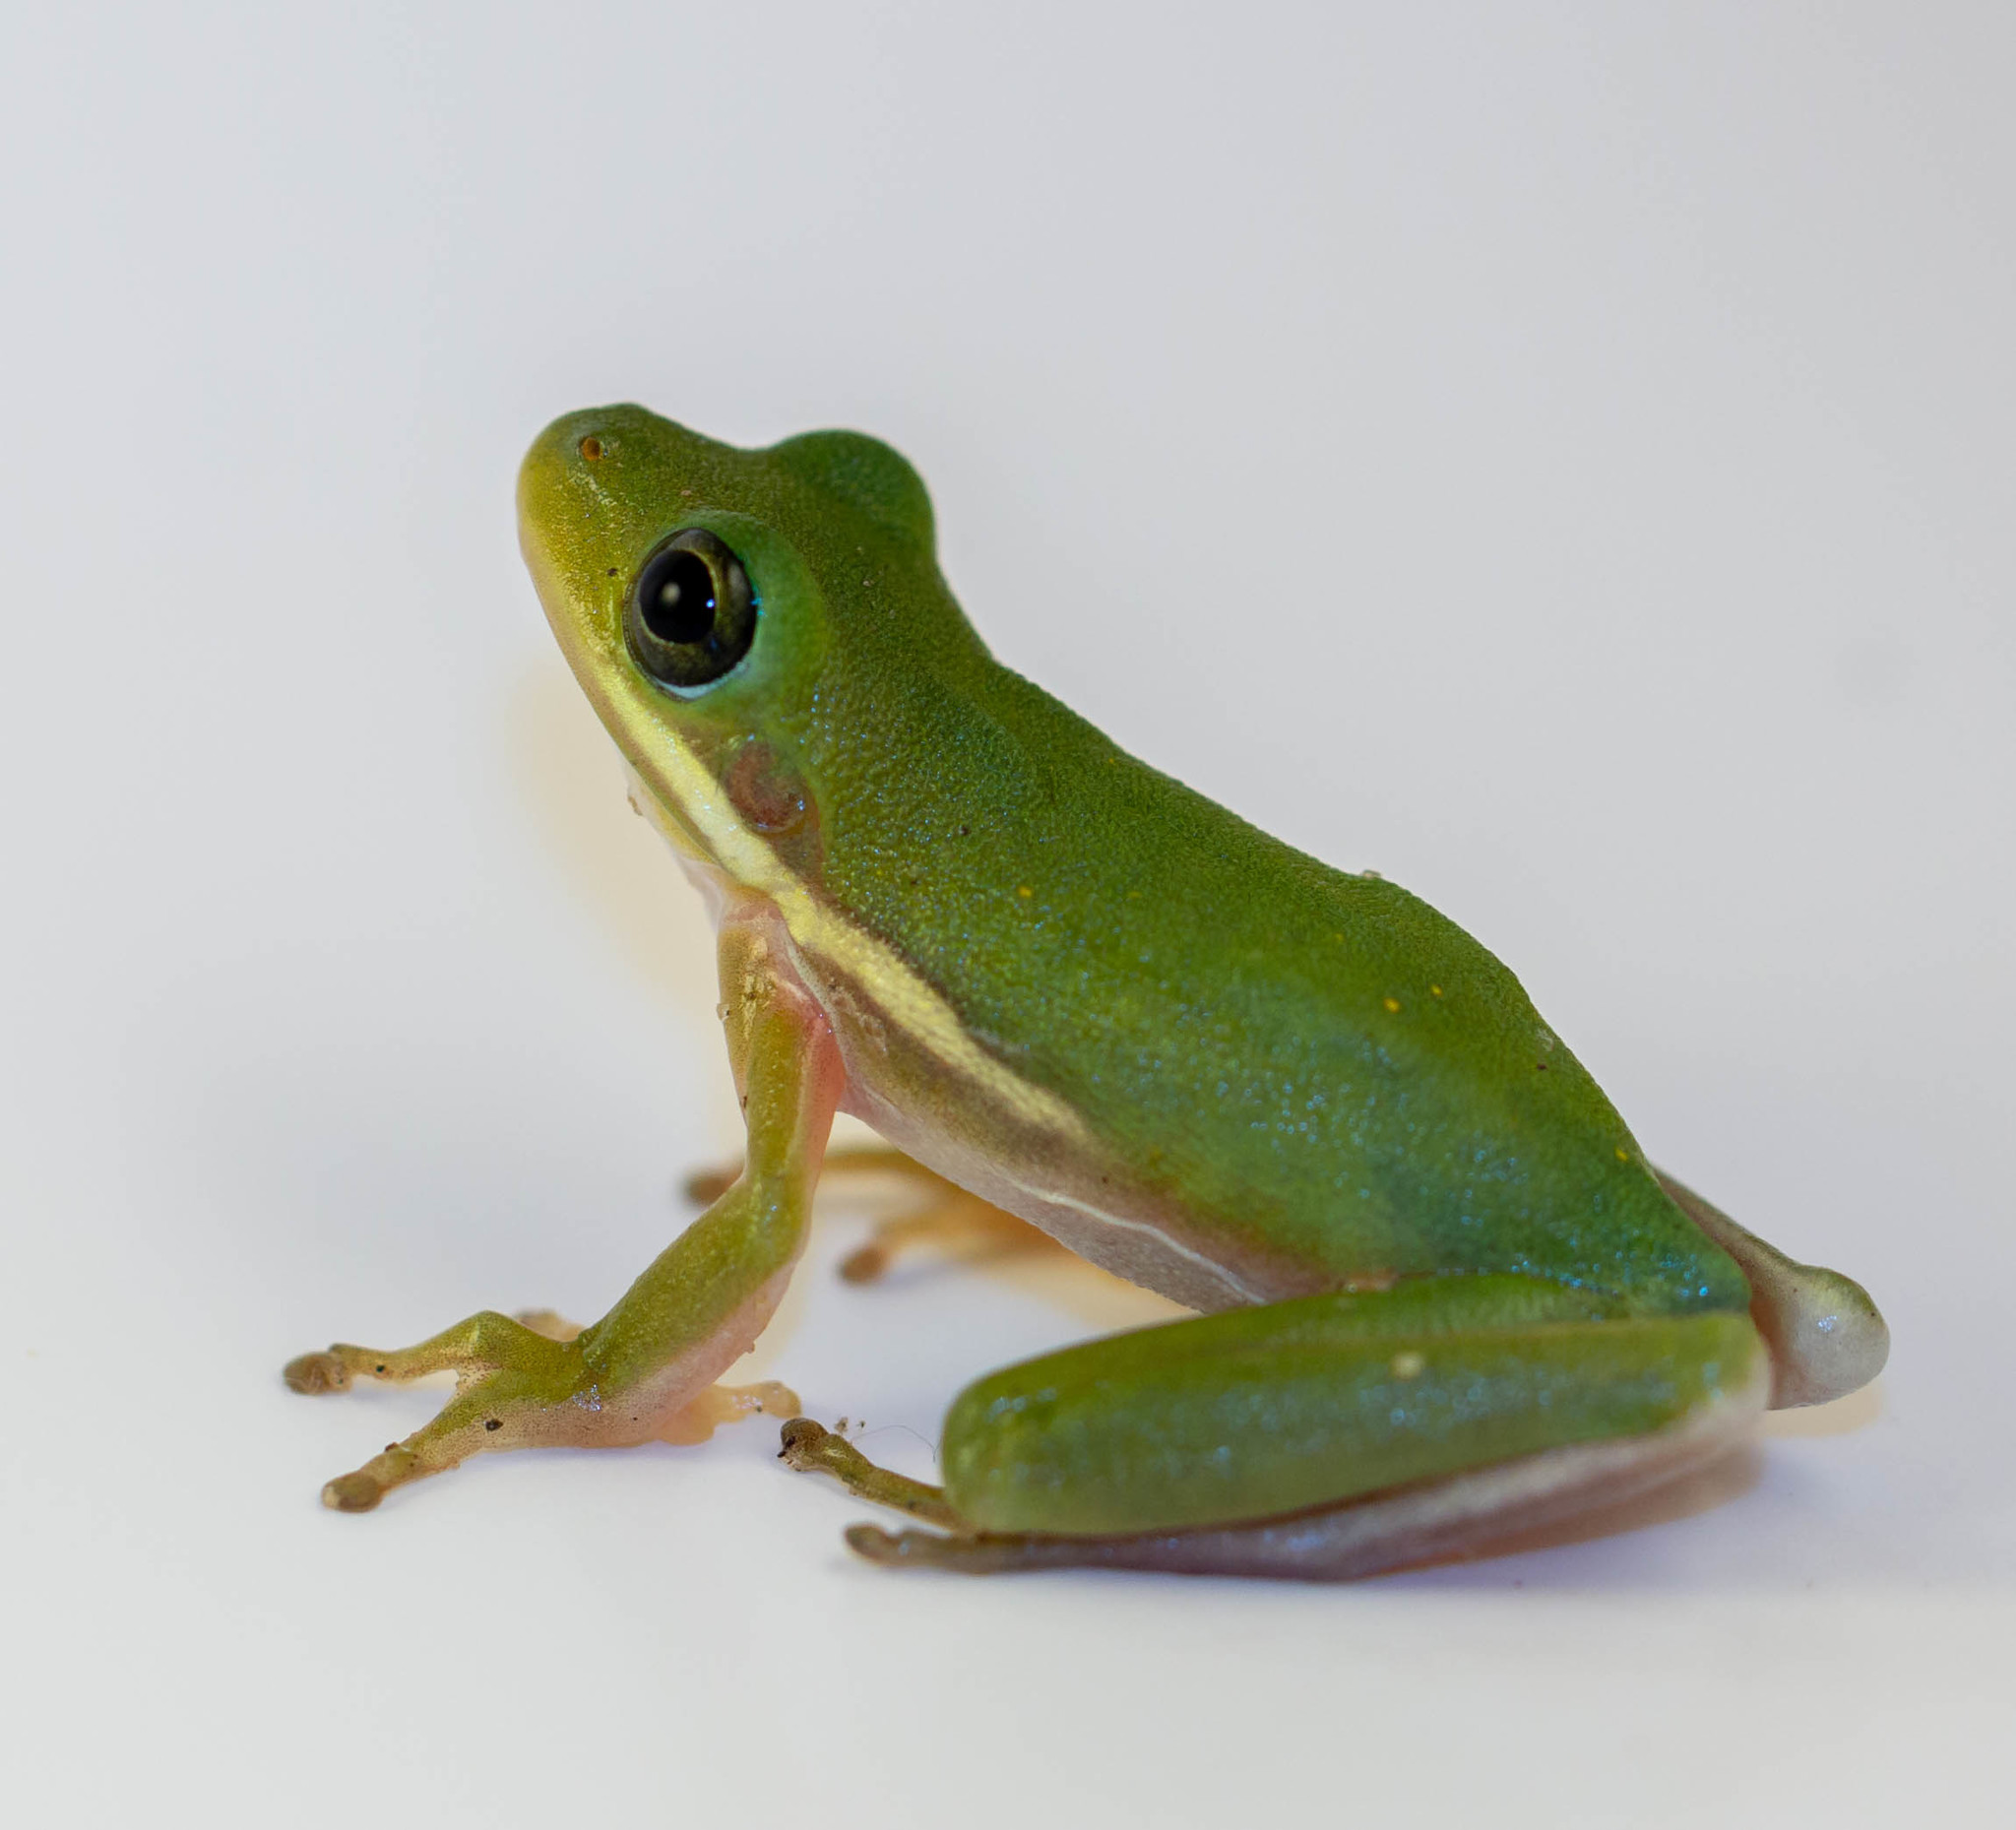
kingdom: Animalia
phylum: Chordata
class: Amphibia
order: Anura
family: Hylidae
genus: Dryophytes
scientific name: Dryophytes cinereus
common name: Green treefrog
